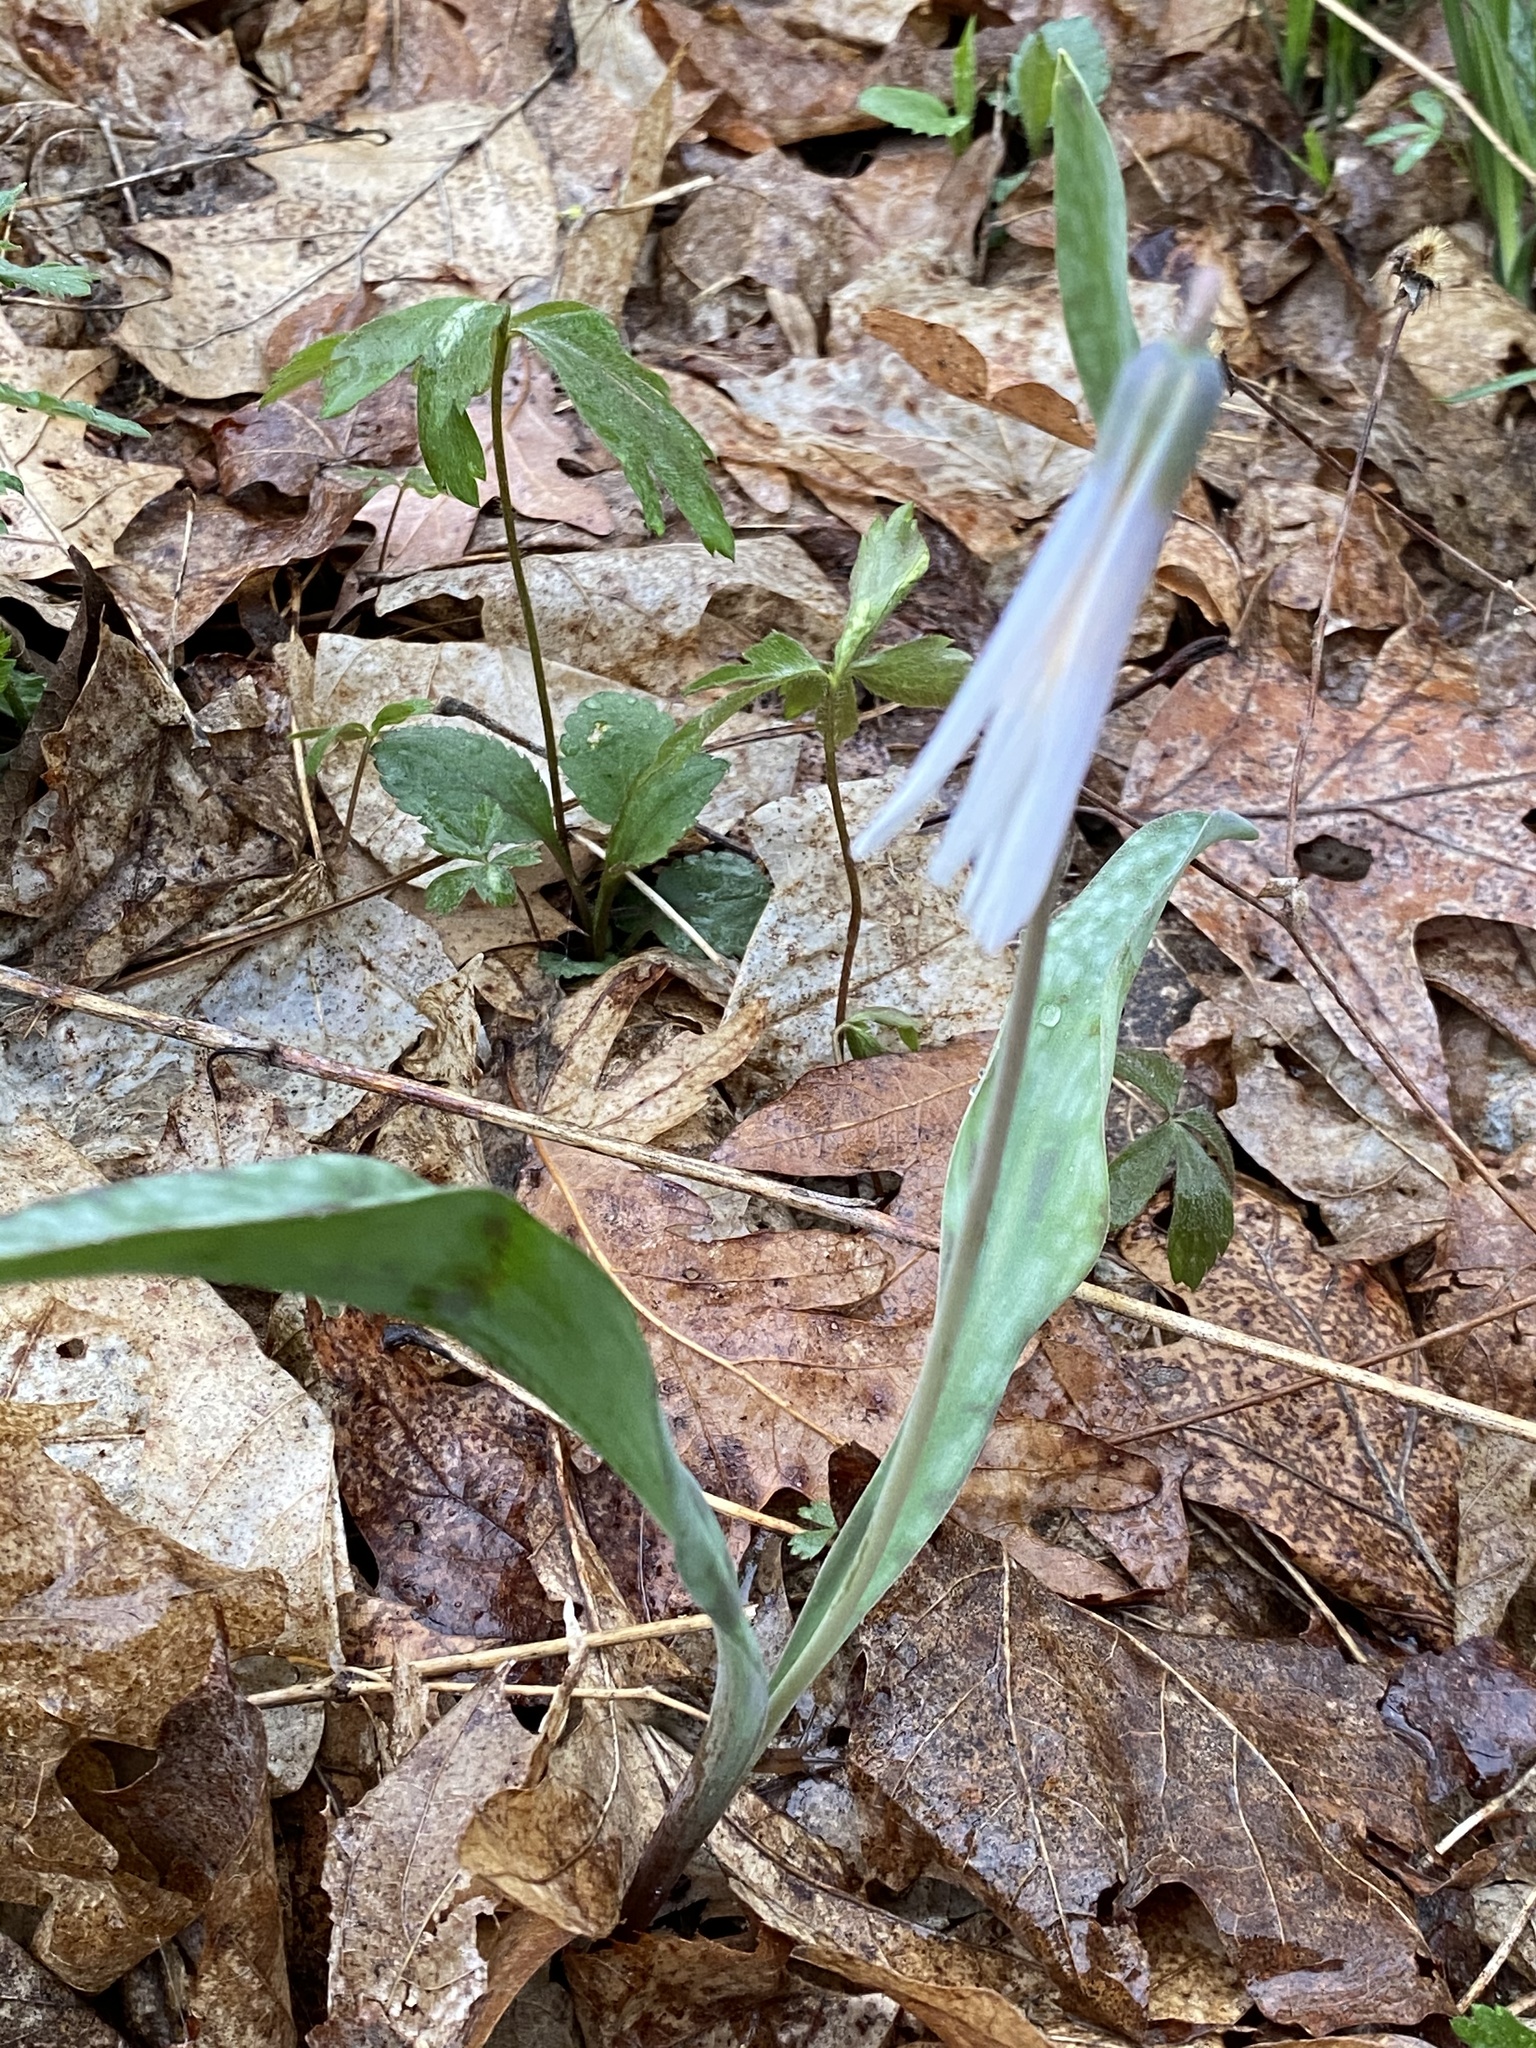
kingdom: Plantae
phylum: Tracheophyta
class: Liliopsida
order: Liliales
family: Liliaceae
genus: Erythronium
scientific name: Erythronium albidum
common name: White trout-lily
